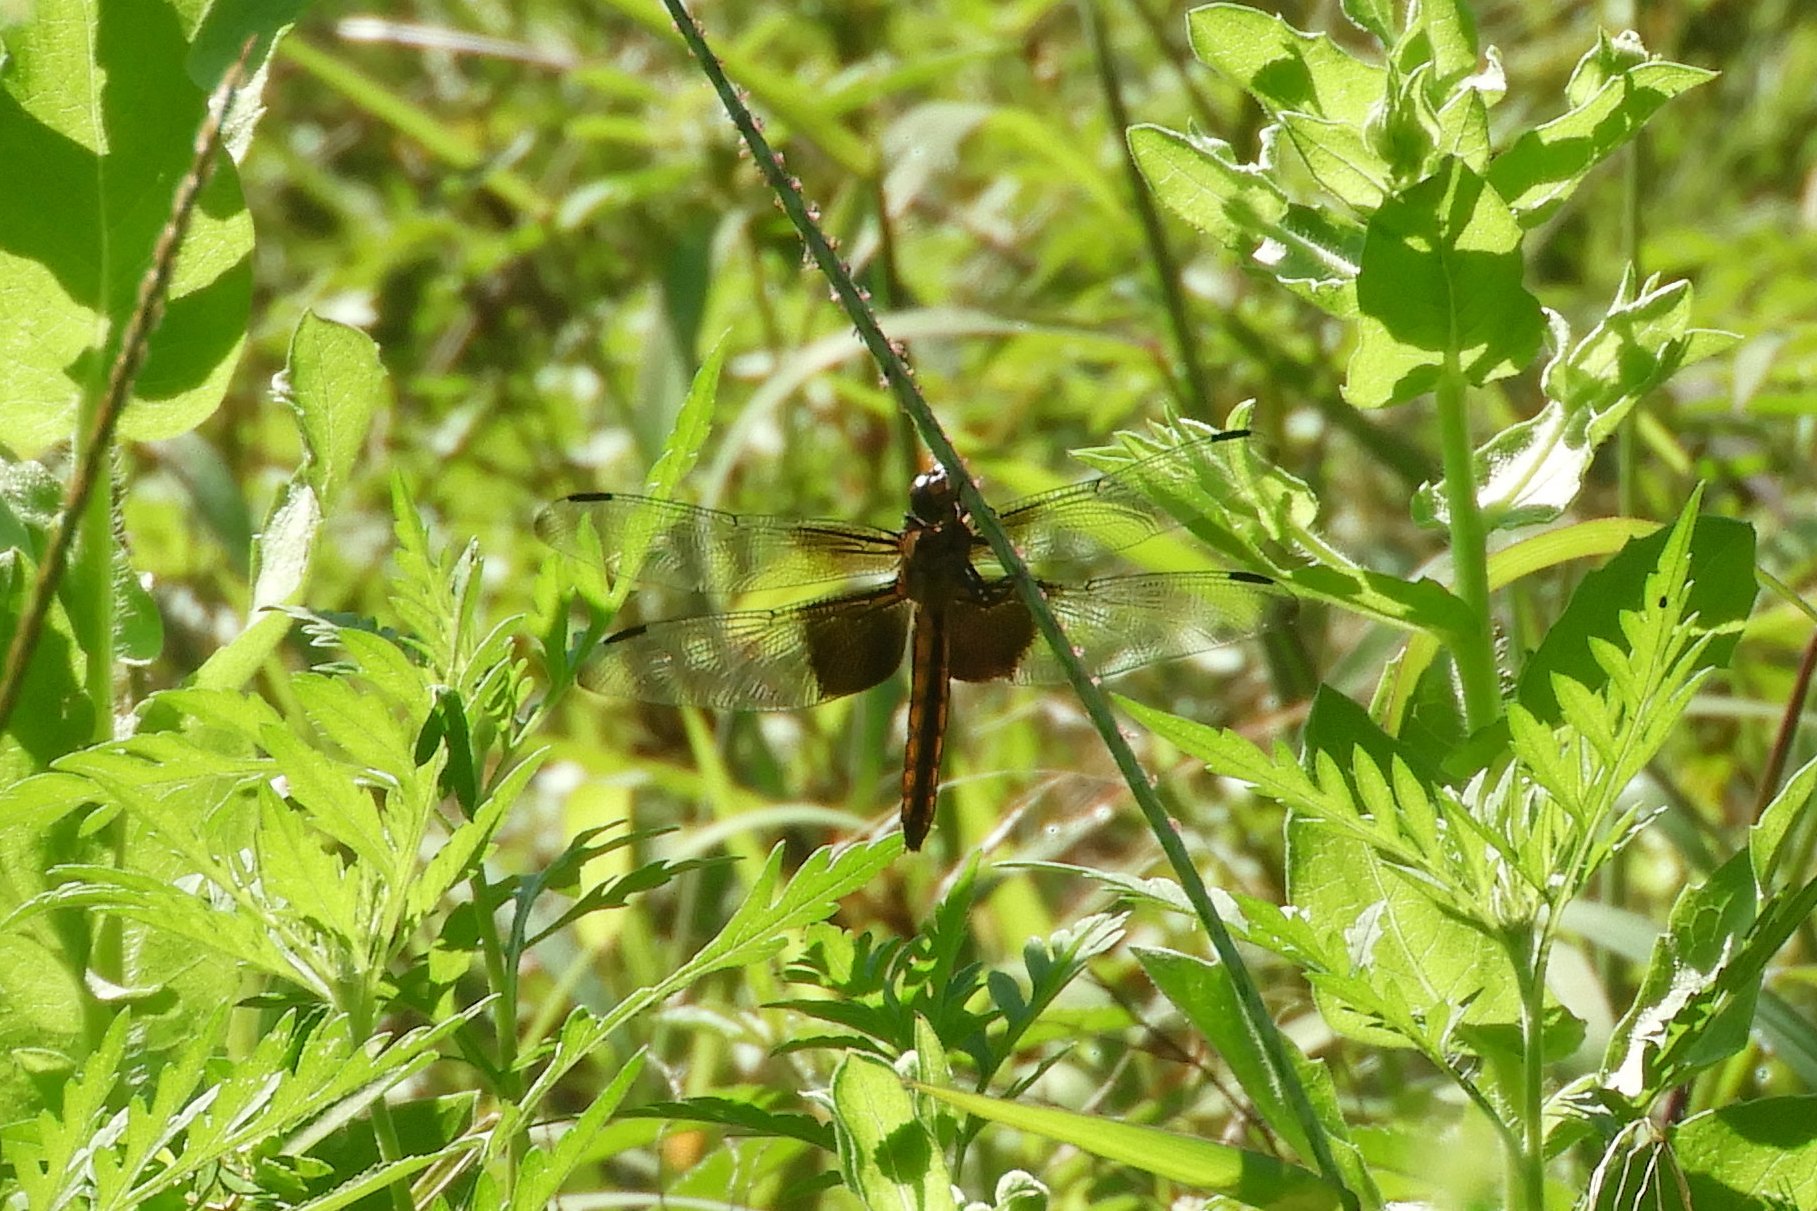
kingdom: Animalia
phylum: Arthropoda
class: Insecta
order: Odonata
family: Libellulidae
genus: Libellula
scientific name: Libellula luctuosa
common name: Widow skimmer
